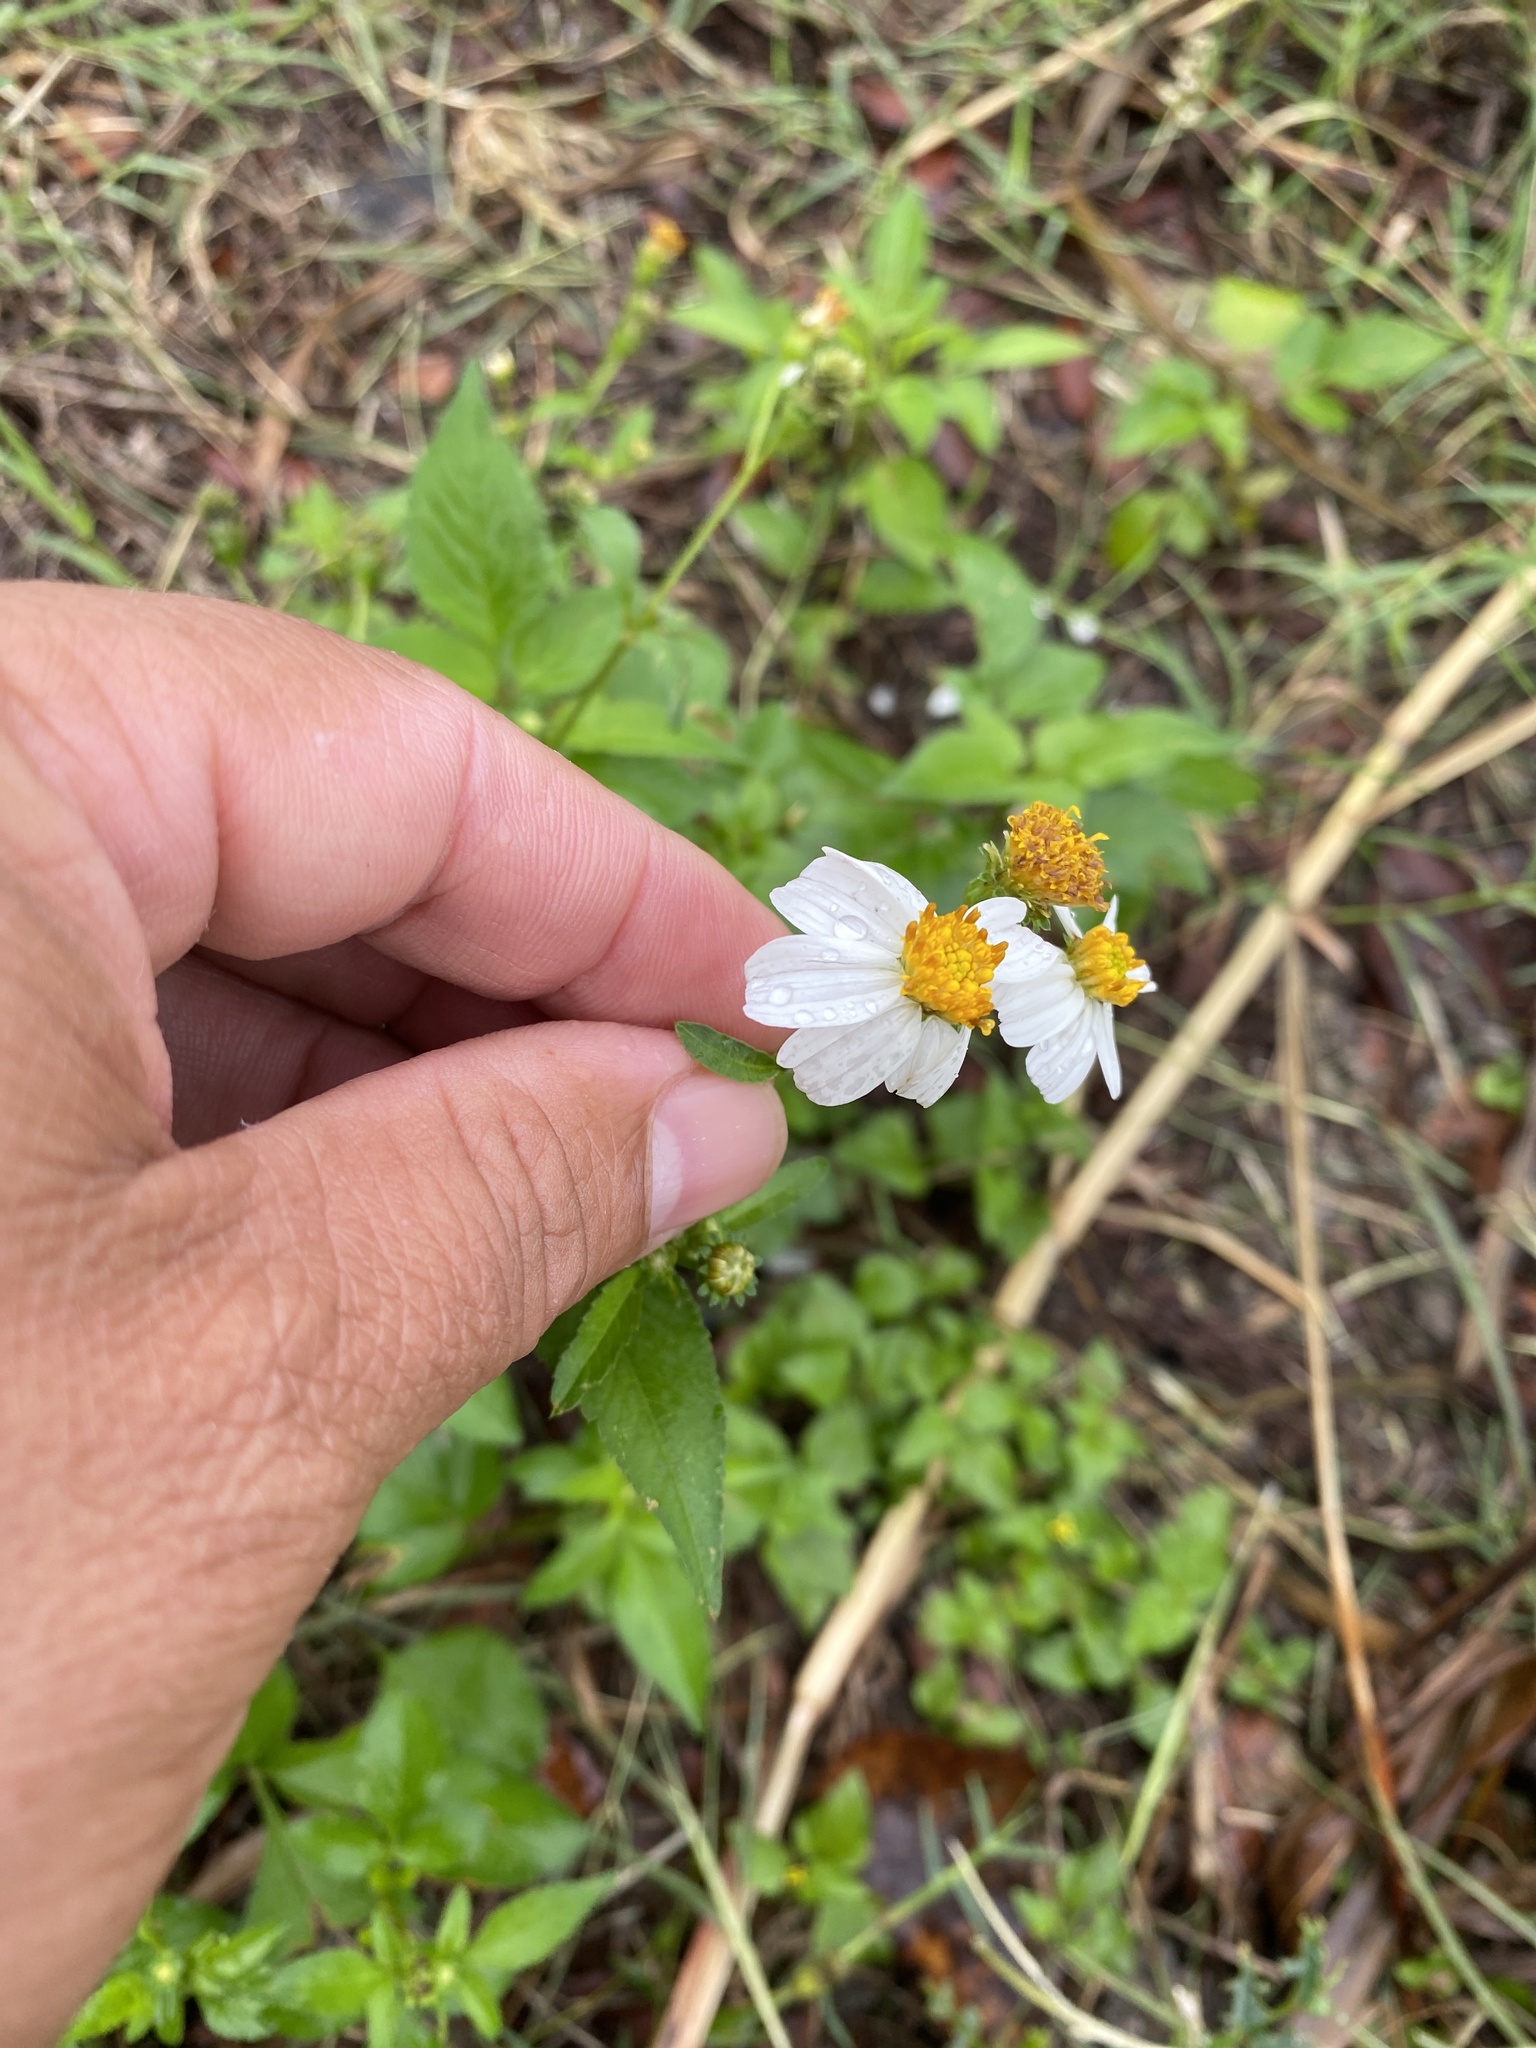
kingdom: Plantae
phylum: Tracheophyta
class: Magnoliopsida
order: Asterales
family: Asteraceae
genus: Bidens
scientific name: Bidens alba
